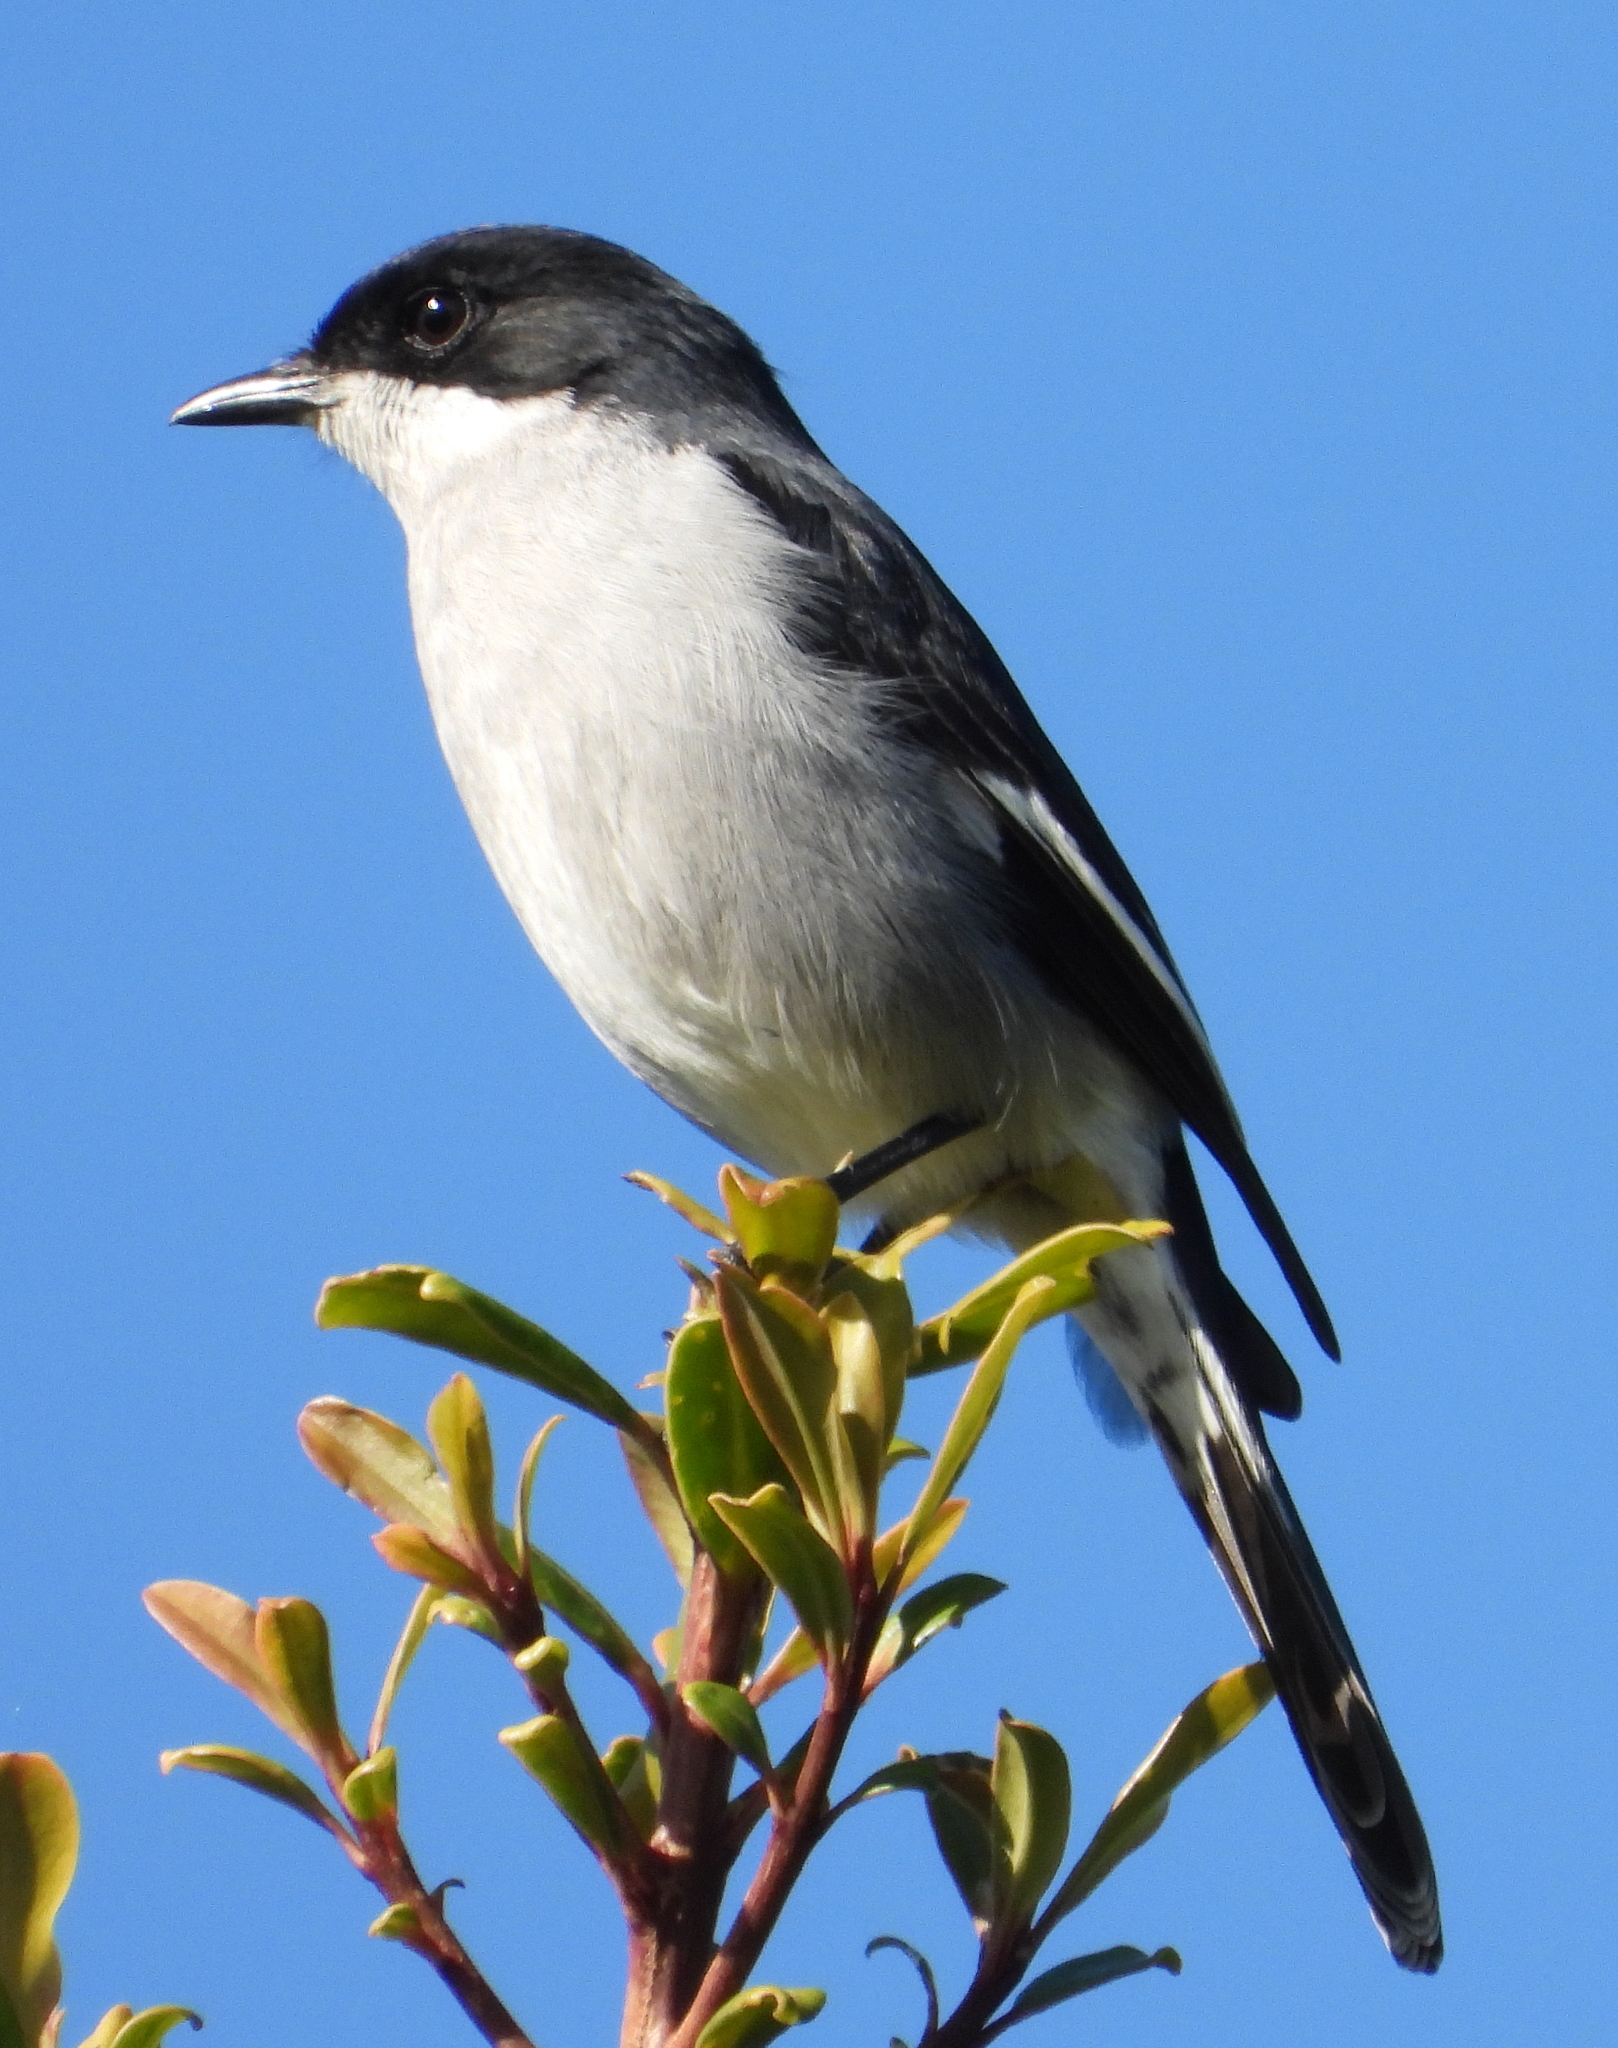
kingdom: Animalia
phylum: Chordata
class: Aves
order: Passeriformes
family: Muscicapidae
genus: Sigelus
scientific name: Sigelus silens
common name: Fiscal flycatcher
